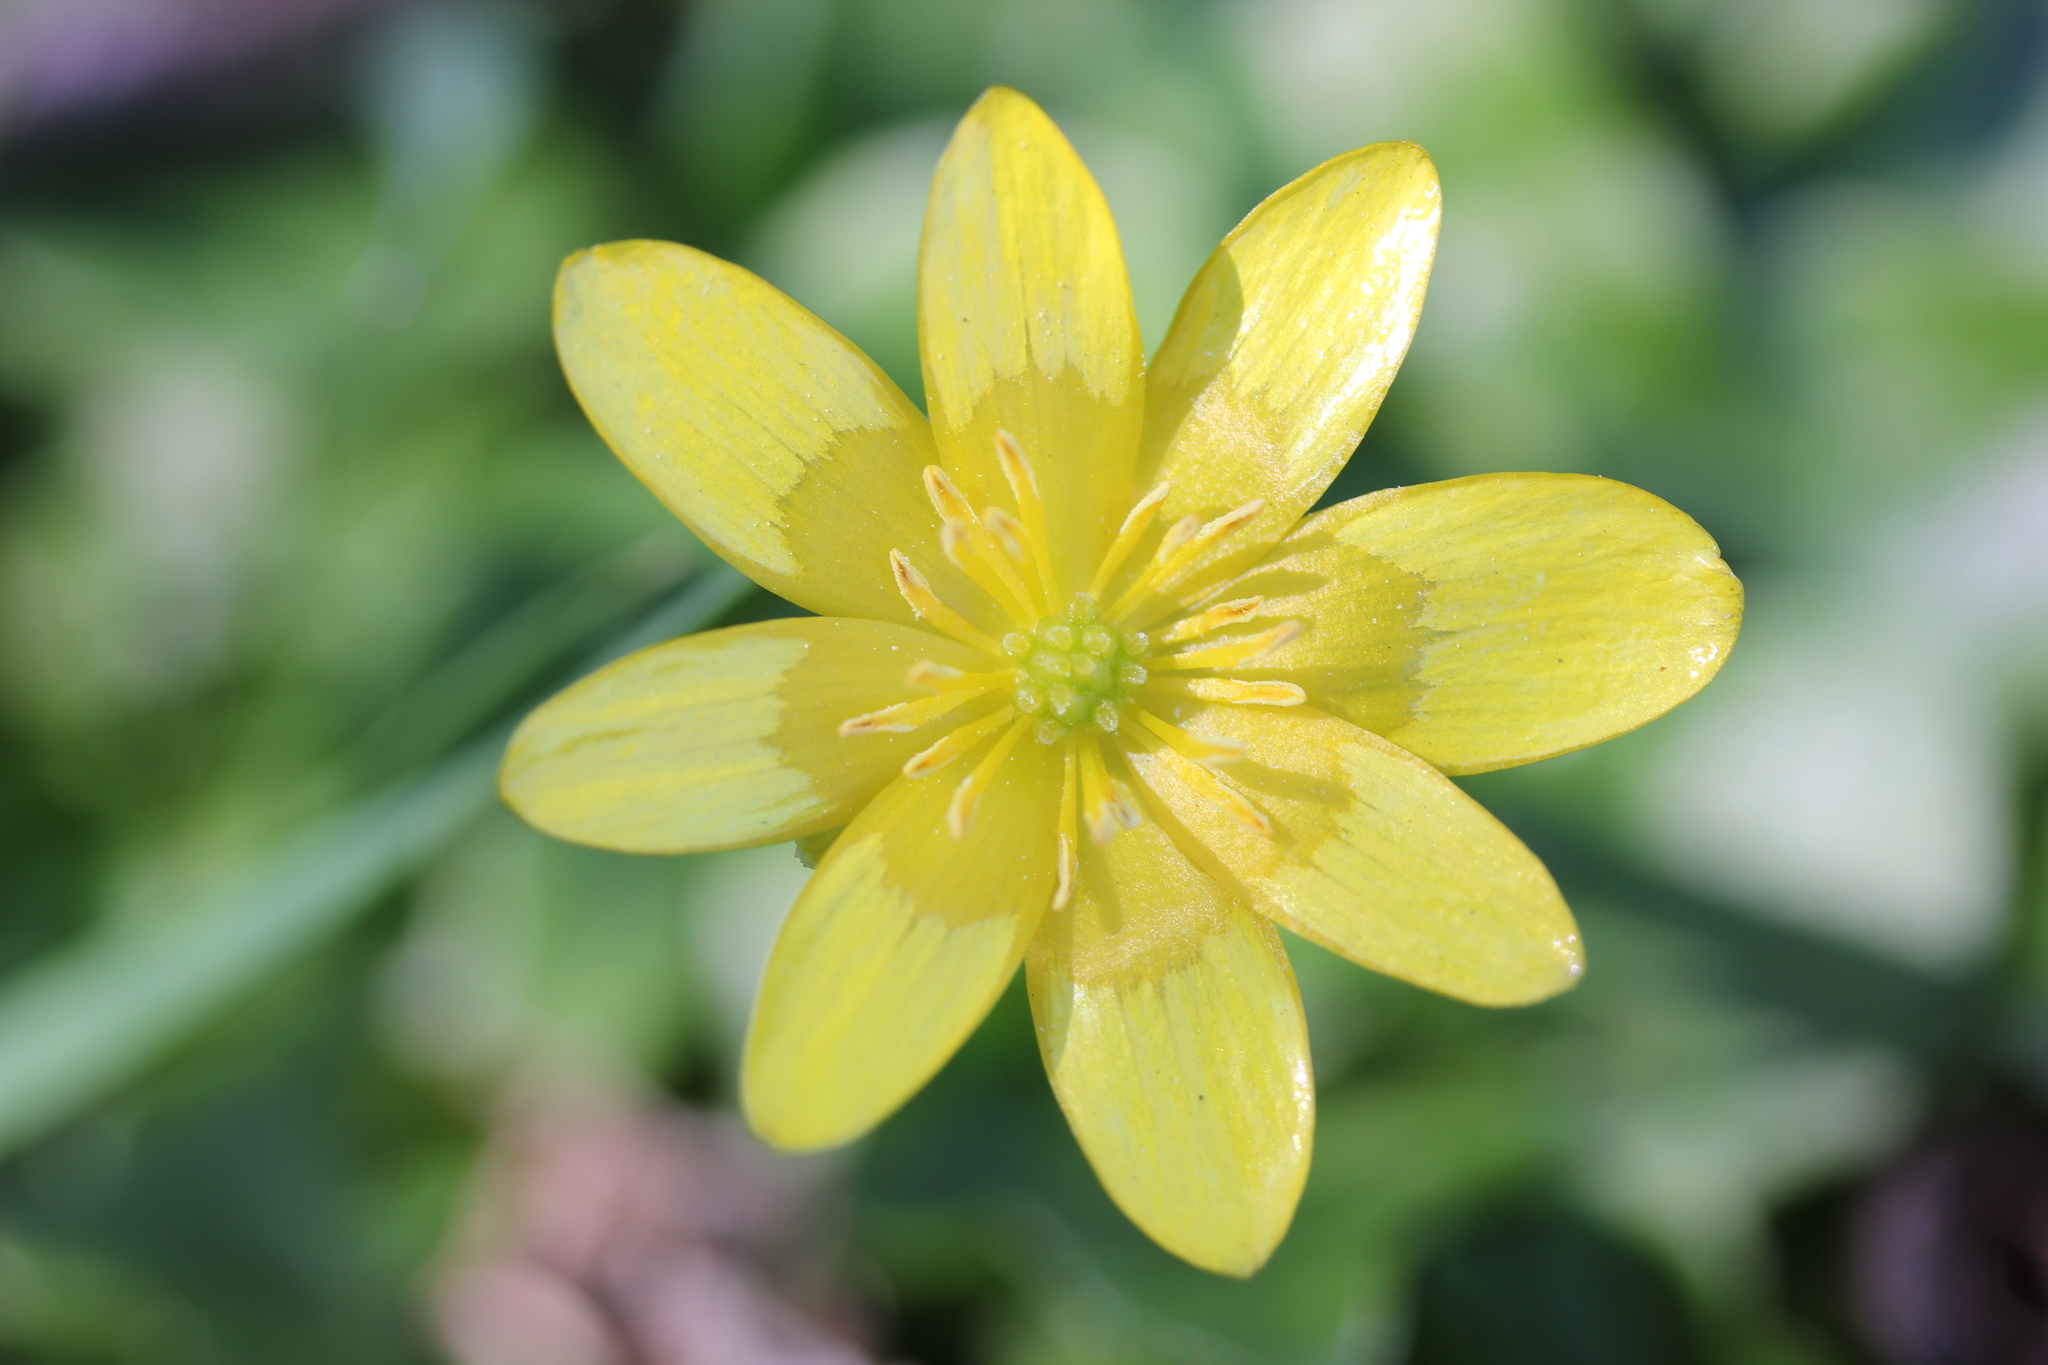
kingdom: Plantae
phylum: Tracheophyta
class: Magnoliopsida
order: Ranunculales
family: Ranunculaceae
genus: Ficaria
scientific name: Ficaria verna
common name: Lesser celandine
